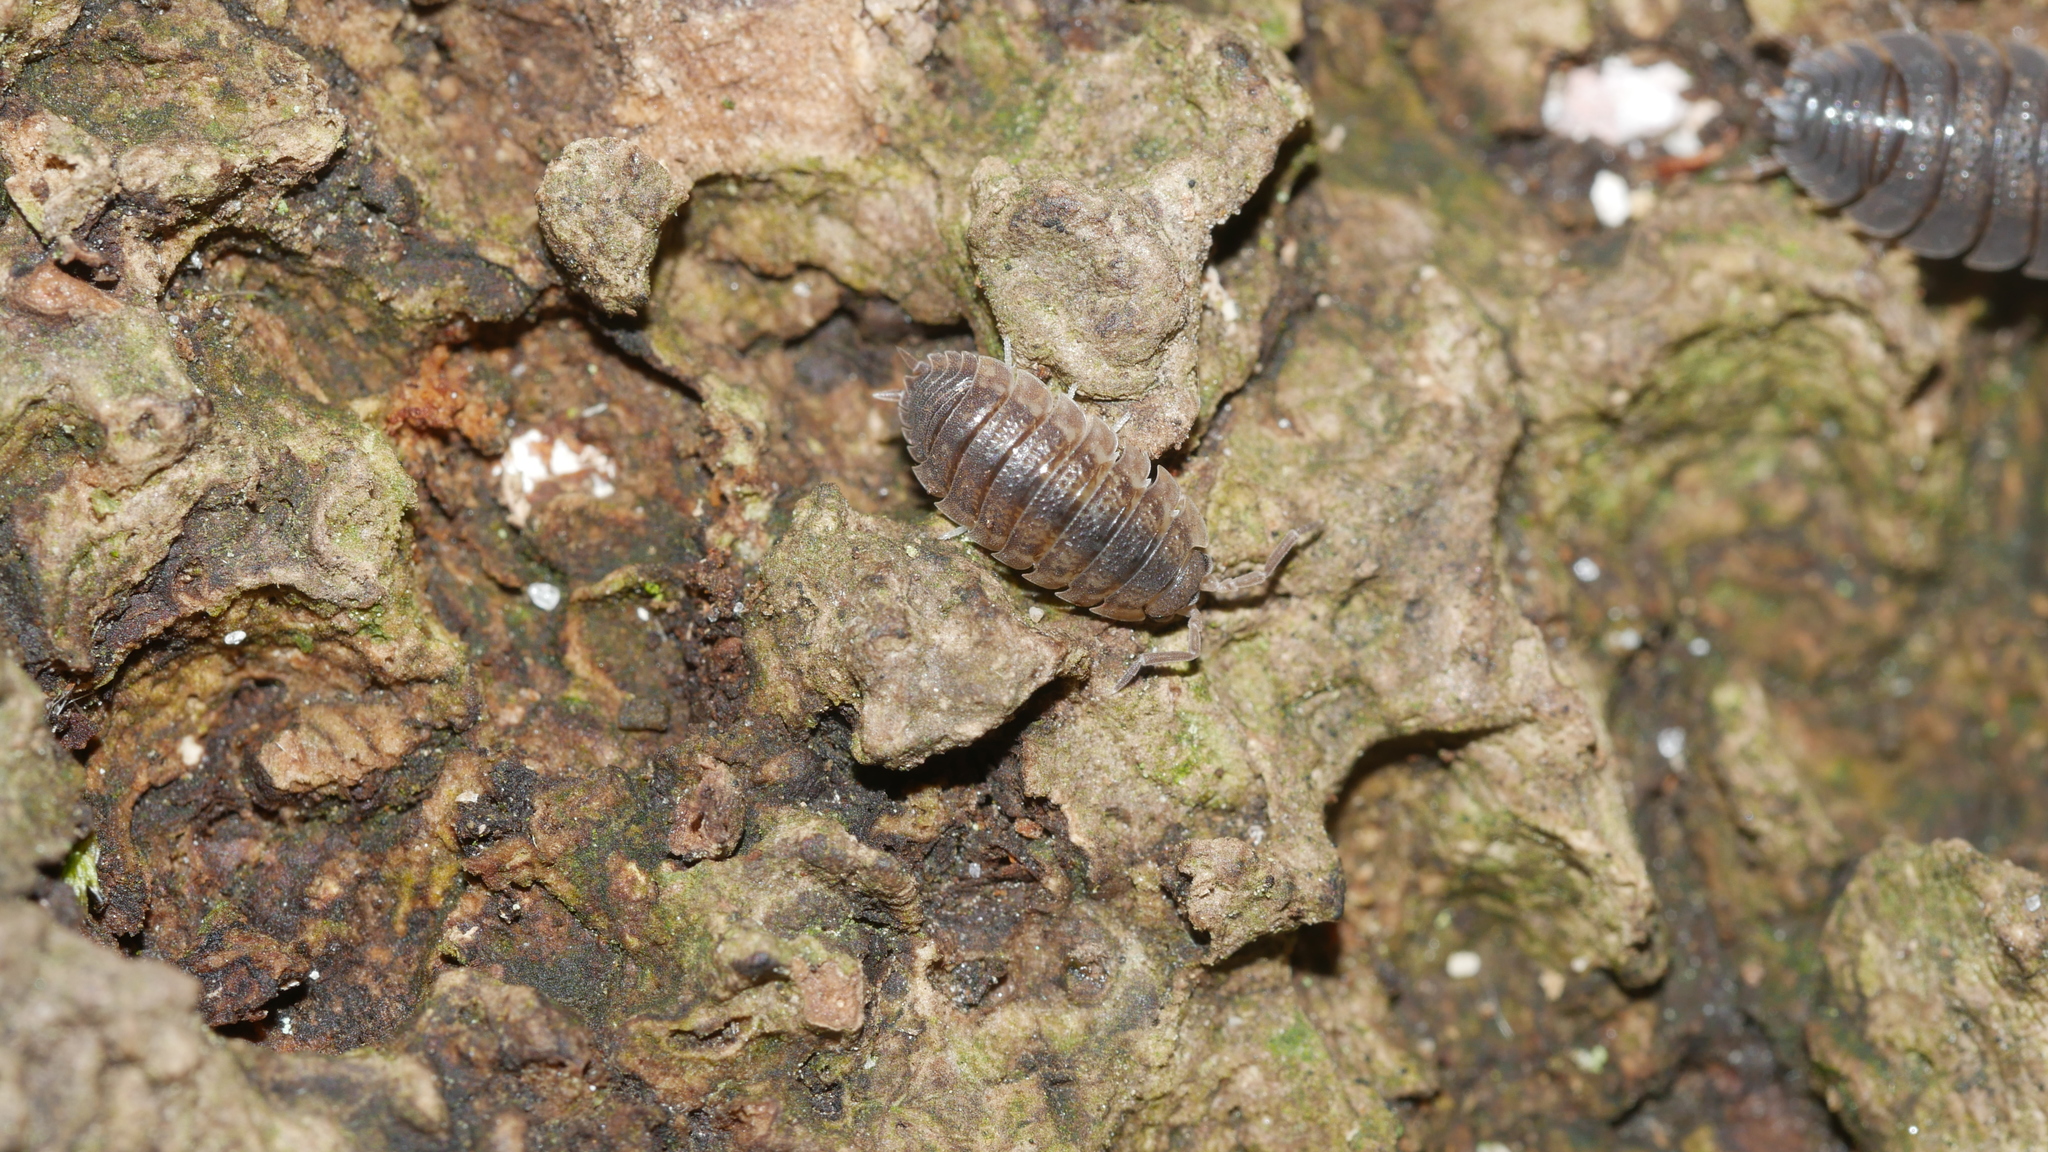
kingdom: Animalia
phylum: Arthropoda
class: Malacostraca
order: Isopoda
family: Porcellionidae
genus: Porcellio
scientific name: Porcellio scaber
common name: Common rough woodlouse
